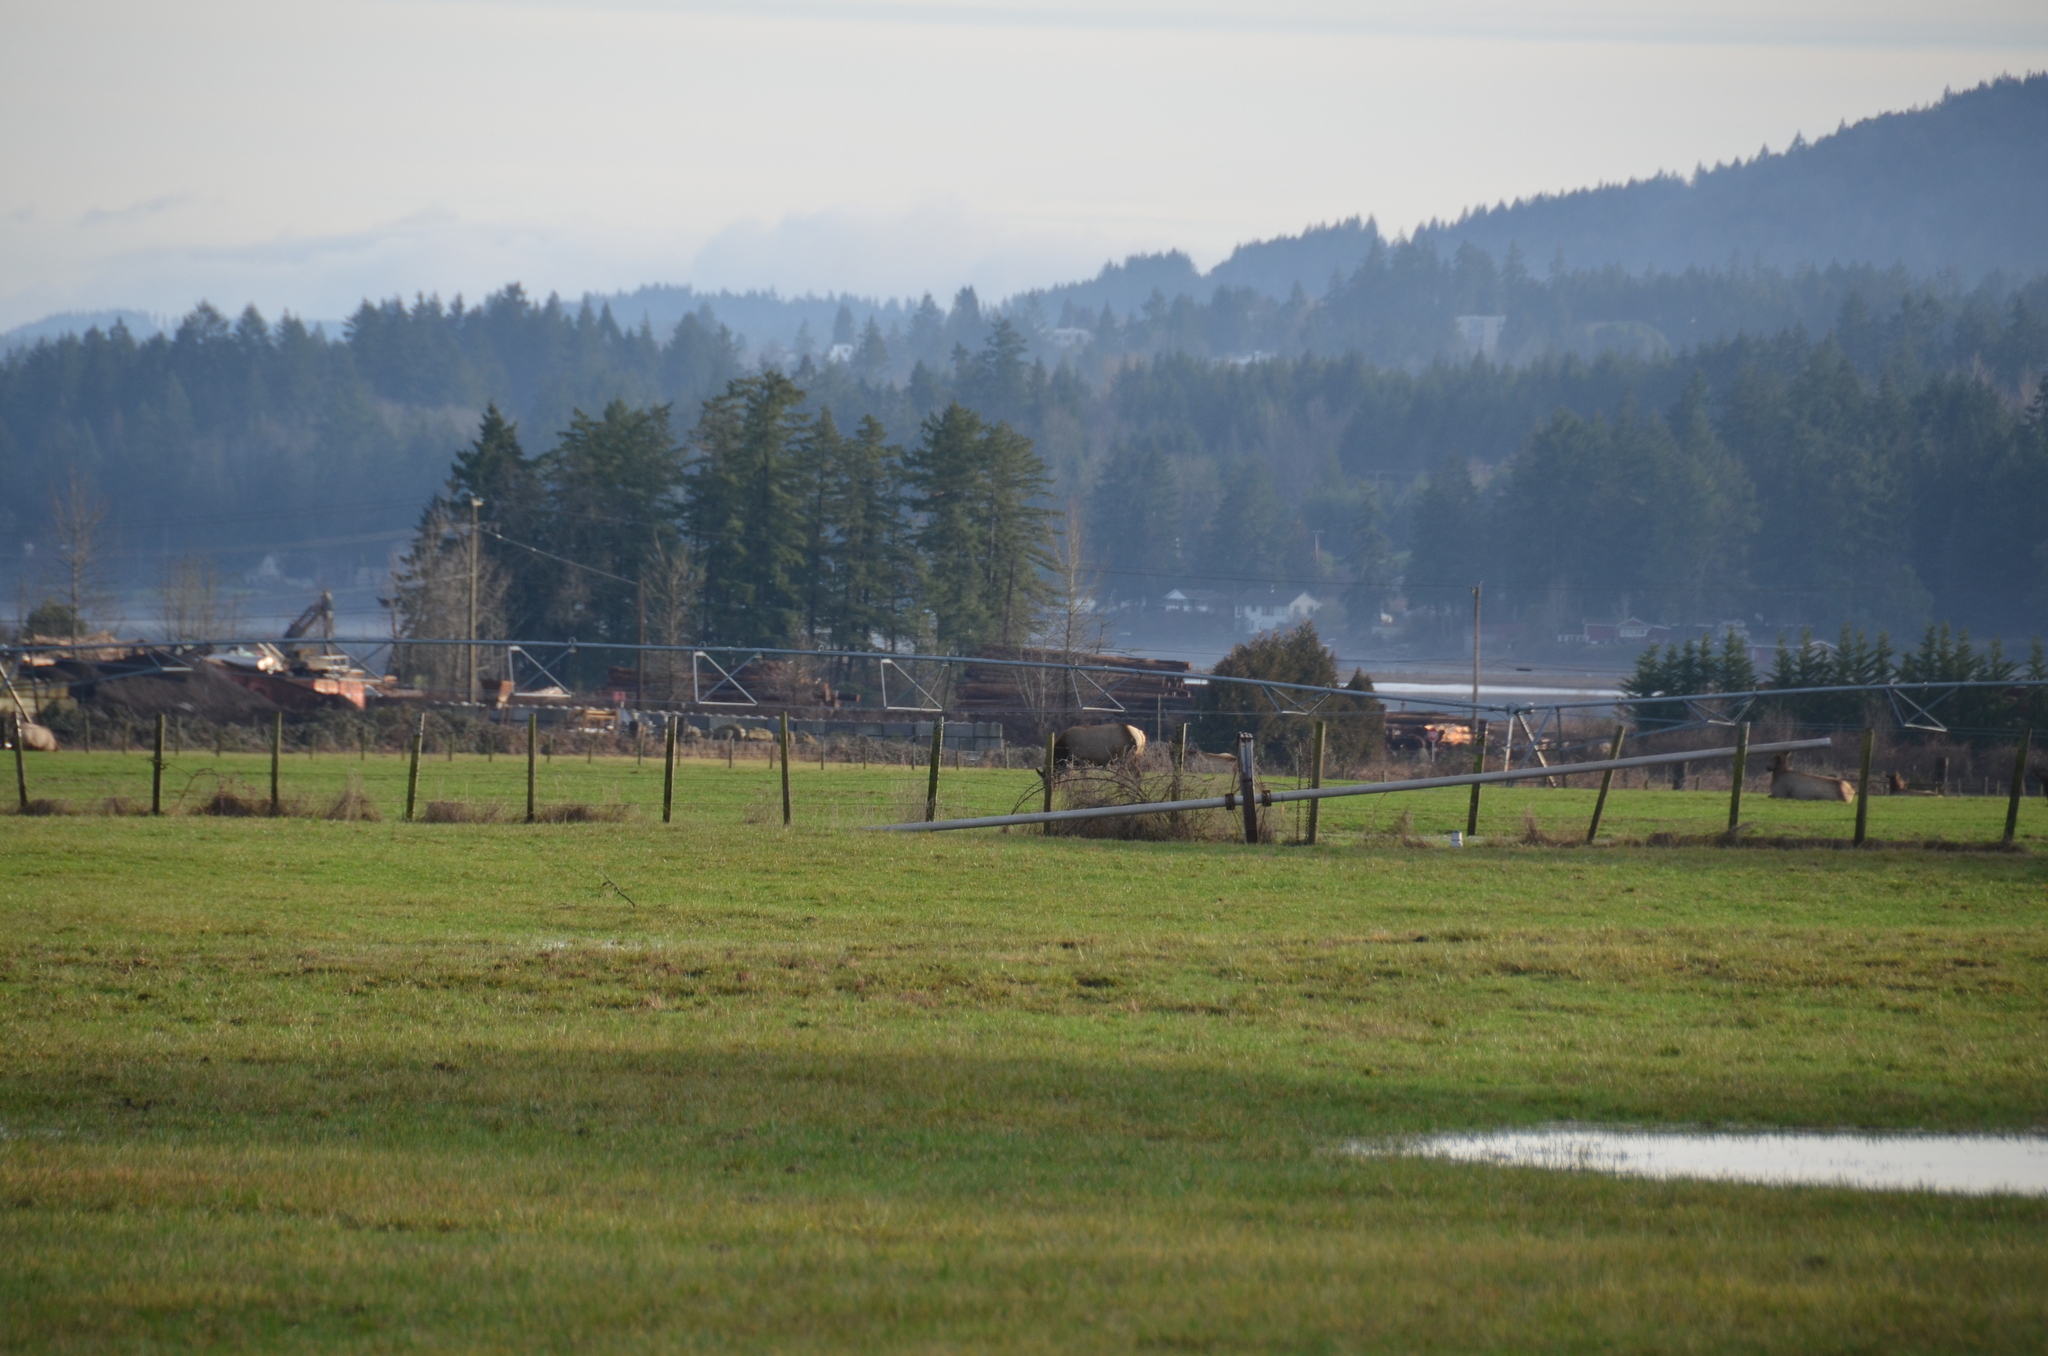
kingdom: Animalia
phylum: Chordata
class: Mammalia
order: Artiodactyla
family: Cervidae
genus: Cervus
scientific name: Cervus elaphus
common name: Red deer
